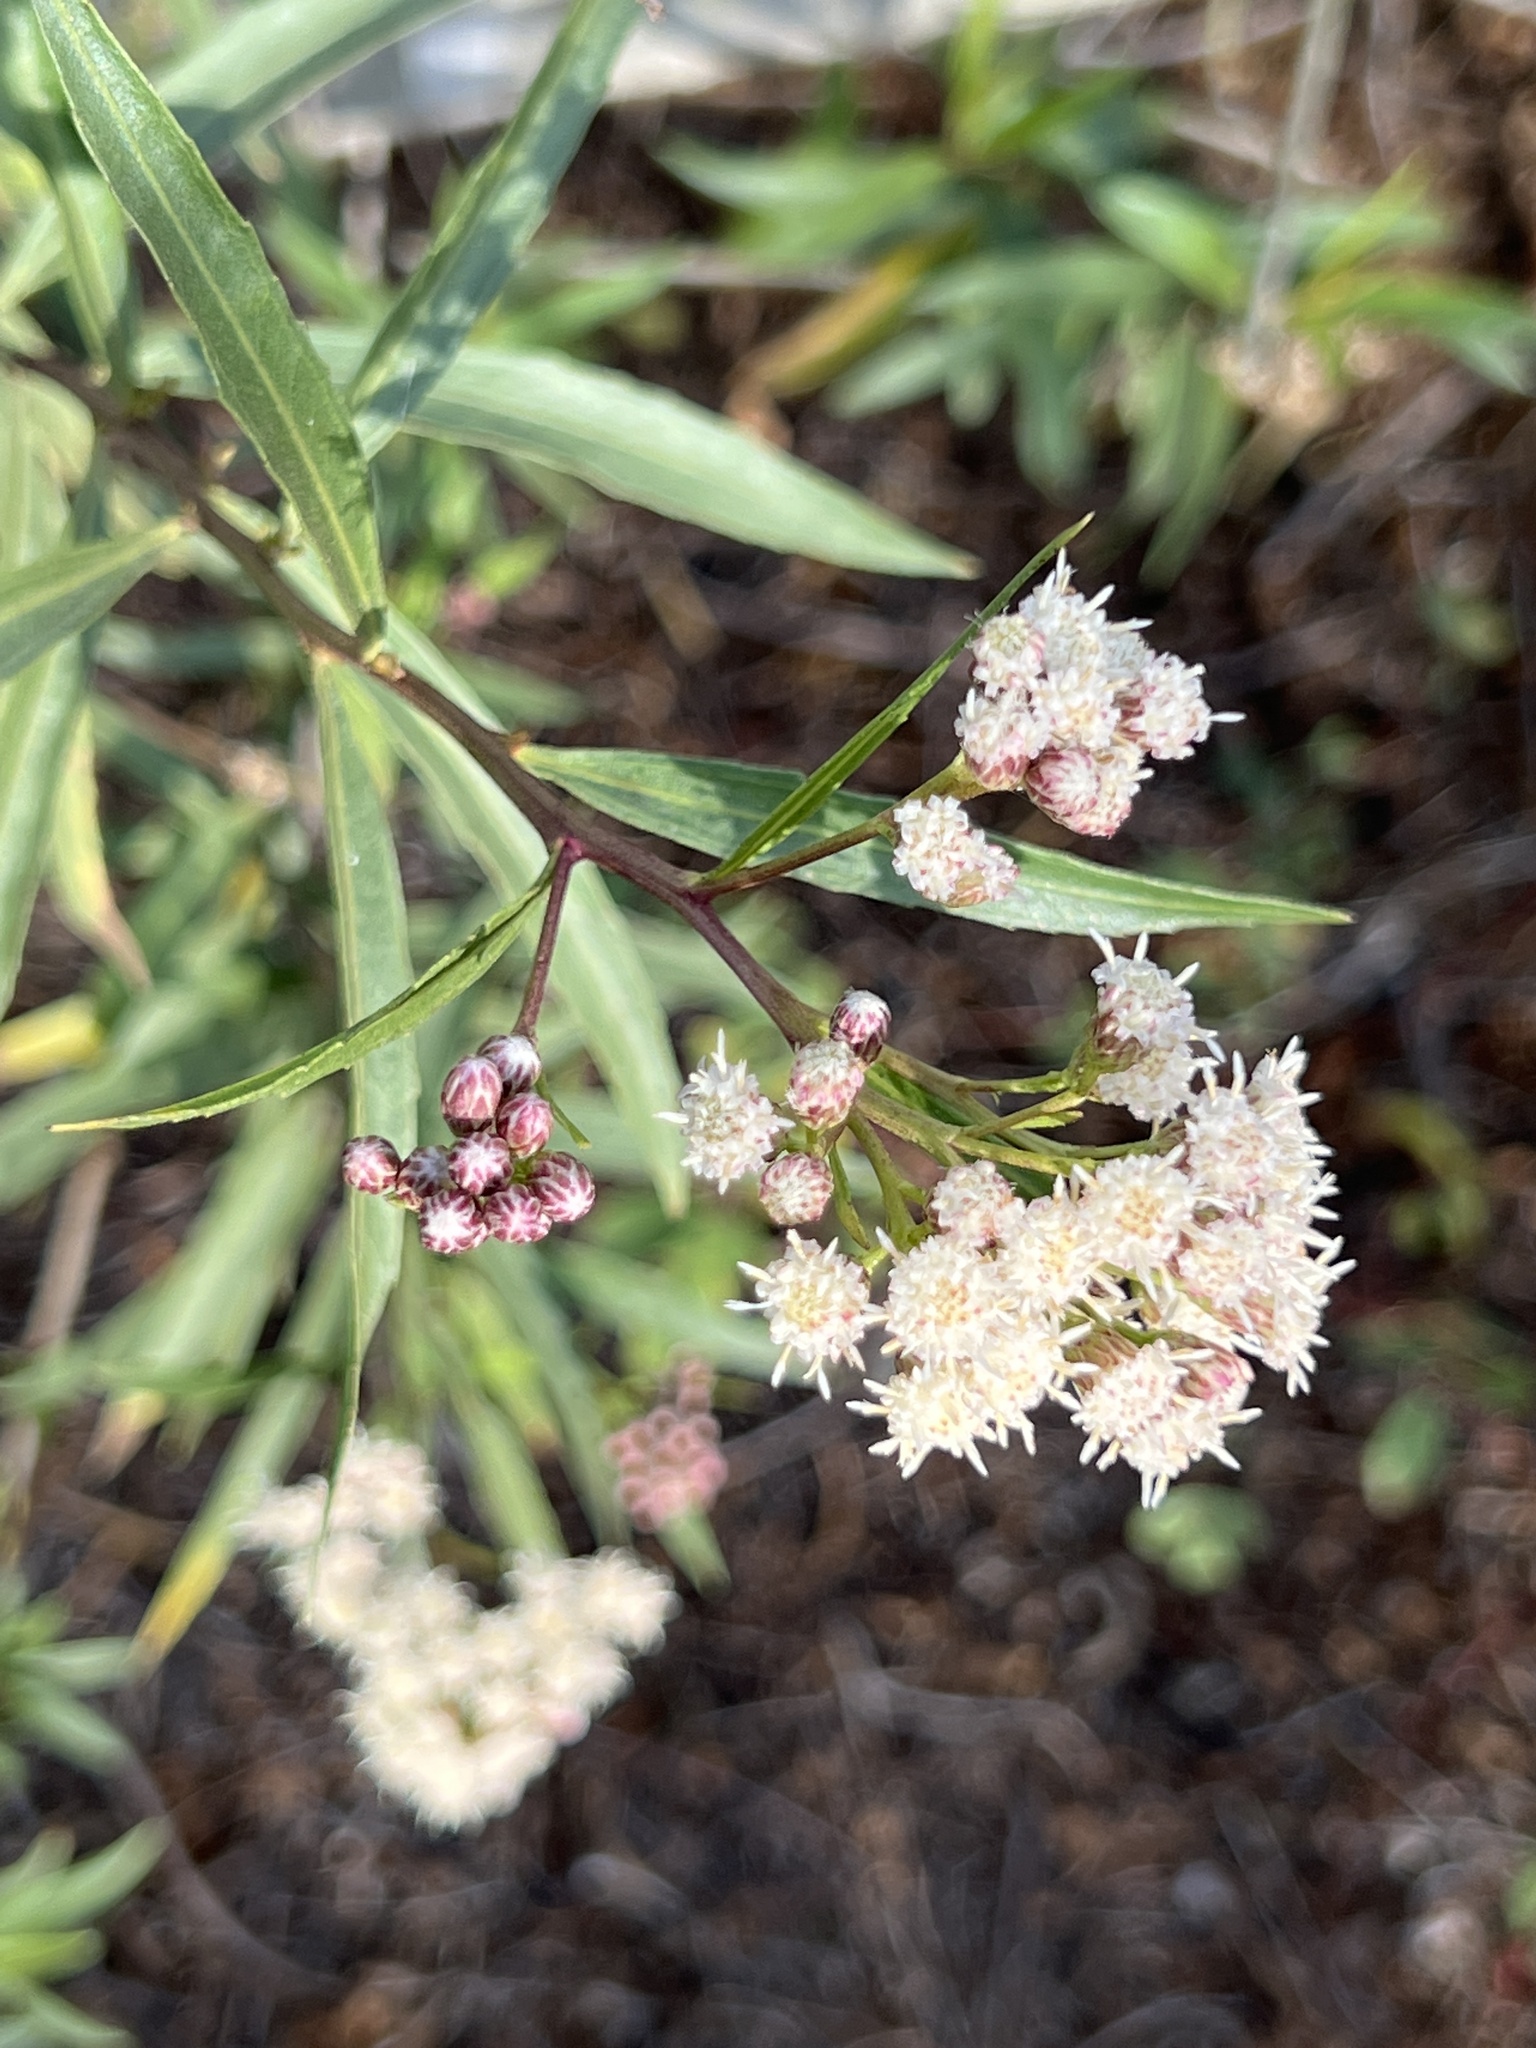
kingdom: Plantae
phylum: Tracheophyta
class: Magnoliopsida
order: Asterales
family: Asteraceae
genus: Baccharis
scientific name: Baccharis salicifolia
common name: Sticky baccharis
